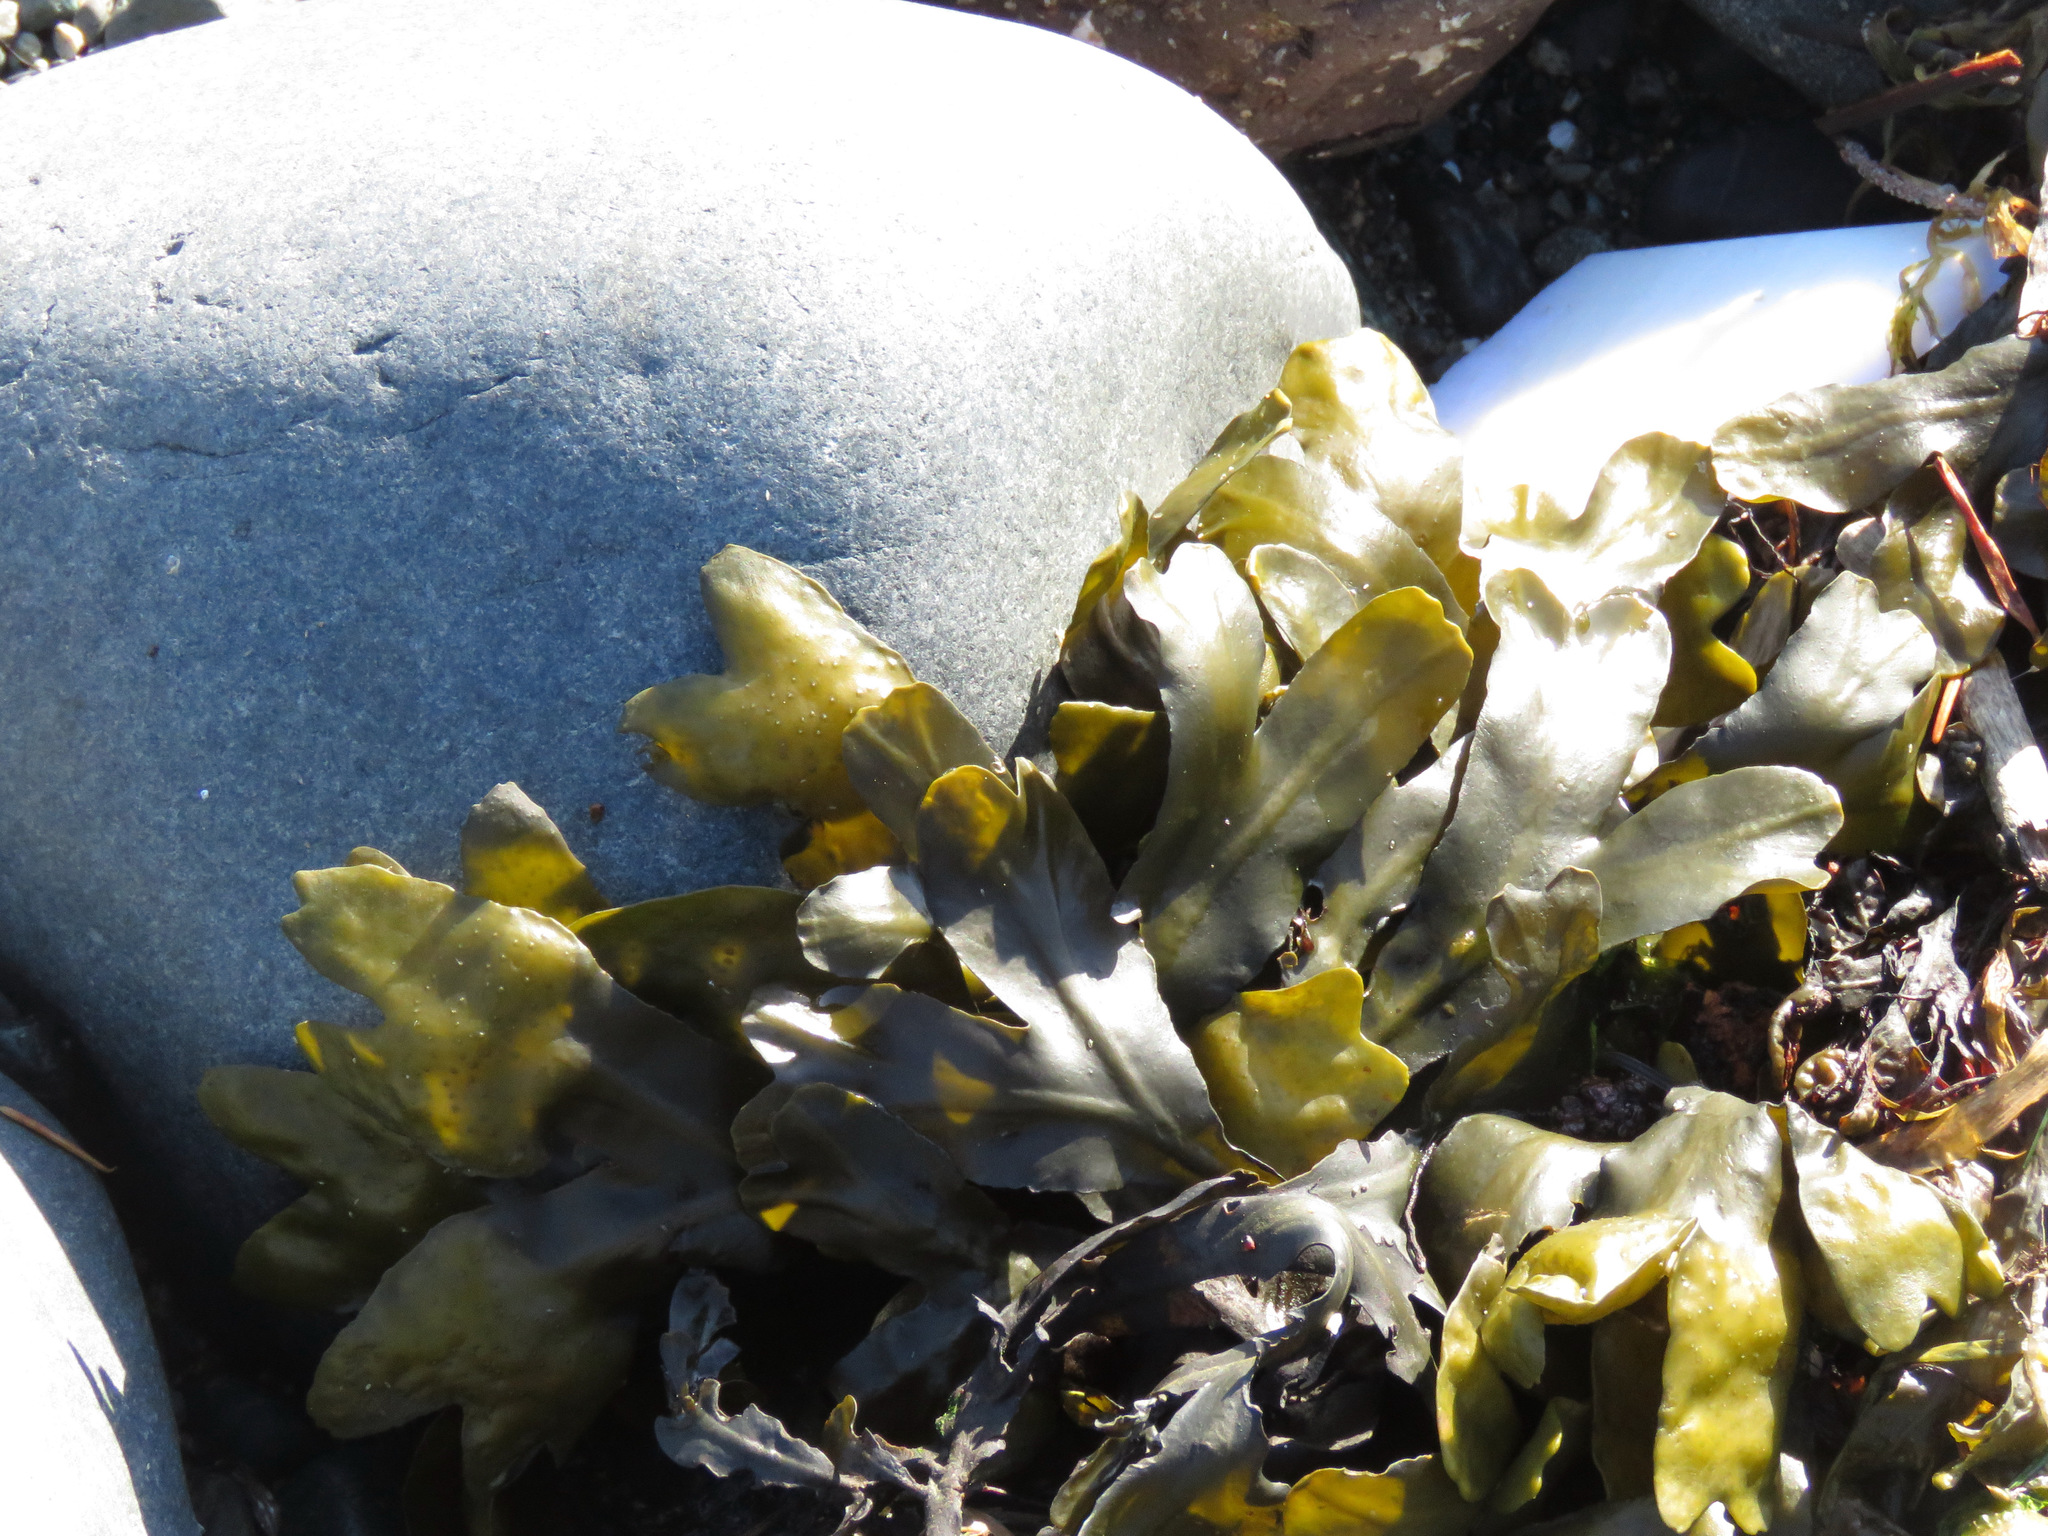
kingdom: Chromista
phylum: Ochrophyta
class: Phaeophyceae
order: Fucales
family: Fucaceae
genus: Fucus
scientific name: Fucus distichus
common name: Rockweed
